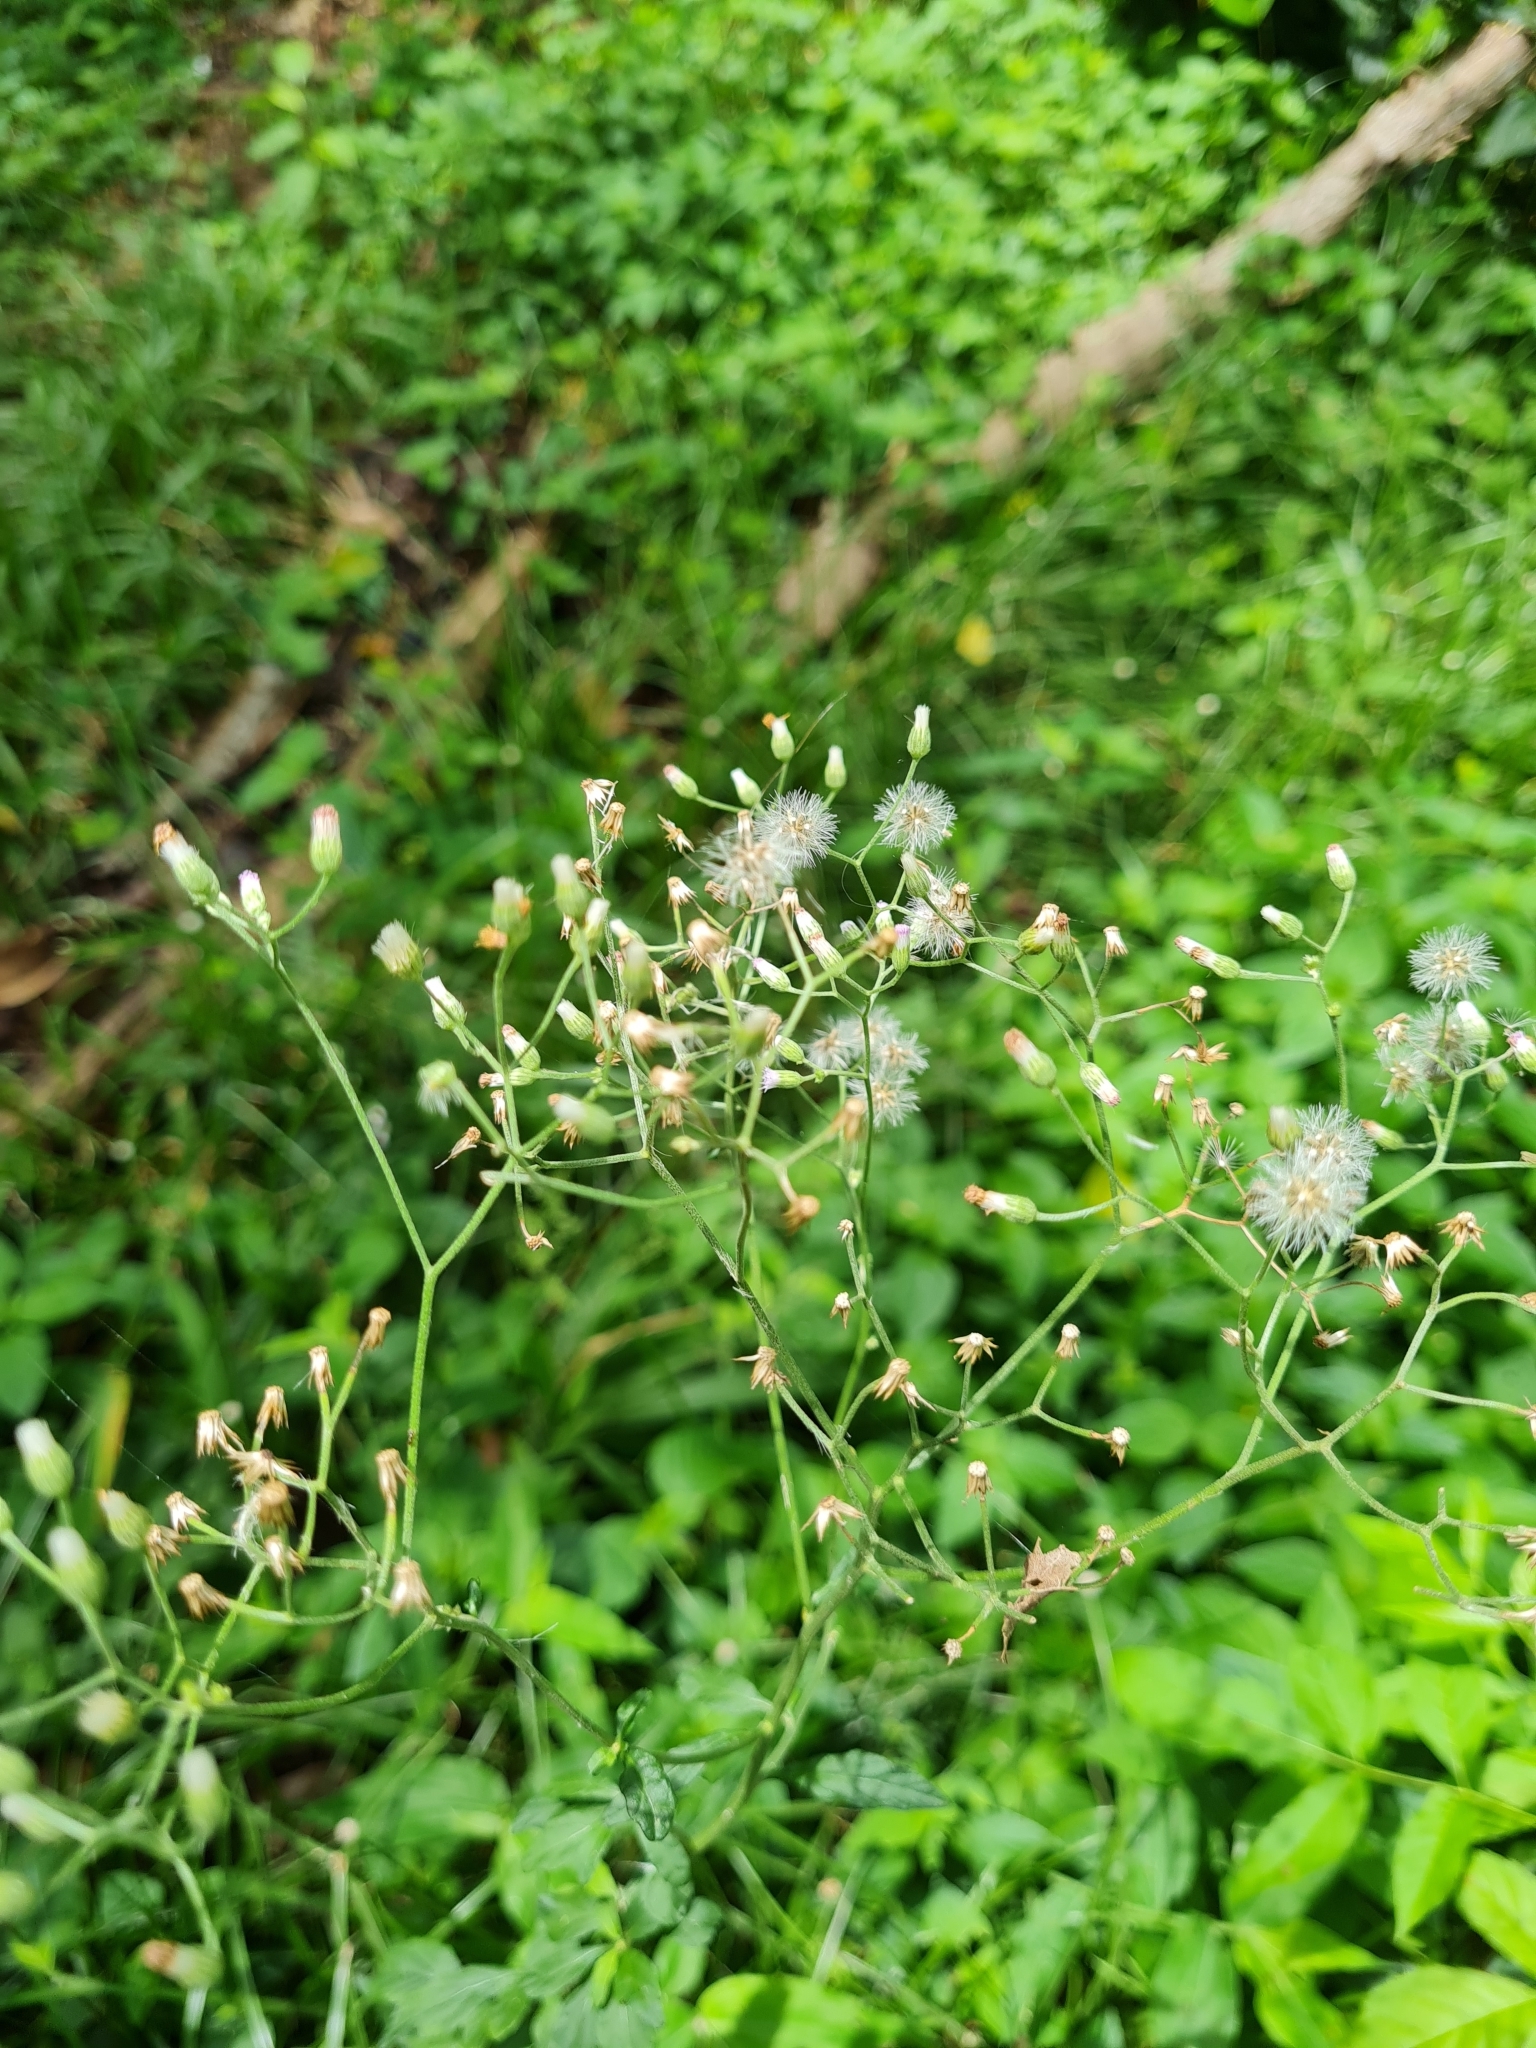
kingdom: Plantae
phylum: Tracheophyta
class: Magnoliopsida
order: Asterales
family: Asteraceae
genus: Cyanthillium
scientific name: Cyanthillium cinereum
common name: Little ironweed
